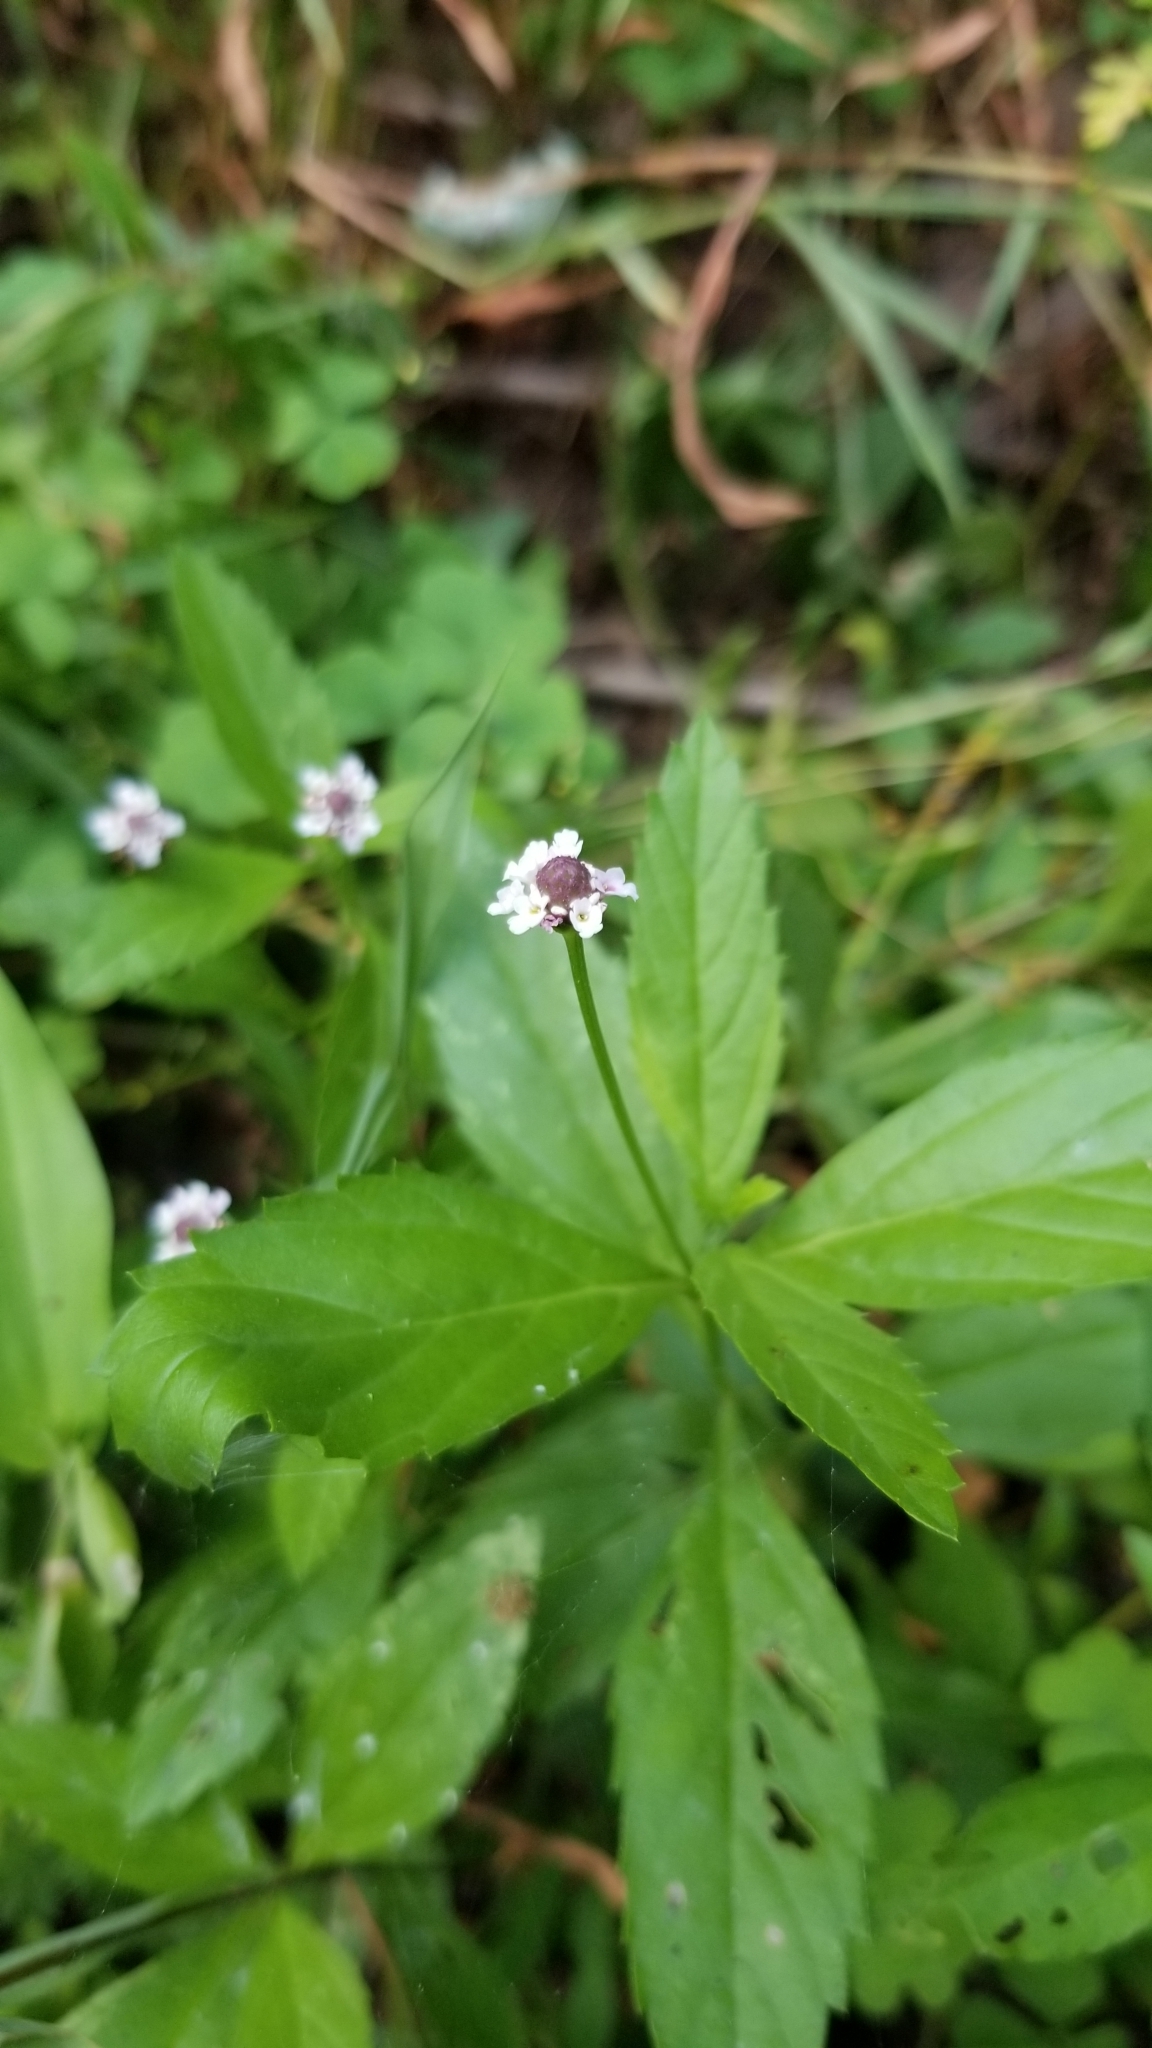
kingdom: Plantae
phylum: Tracheophyta
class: Magnoliopsida
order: Lamiales
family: Verbenaceae
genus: Phyla
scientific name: Phyla lanceolata
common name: Northern fogfruit
